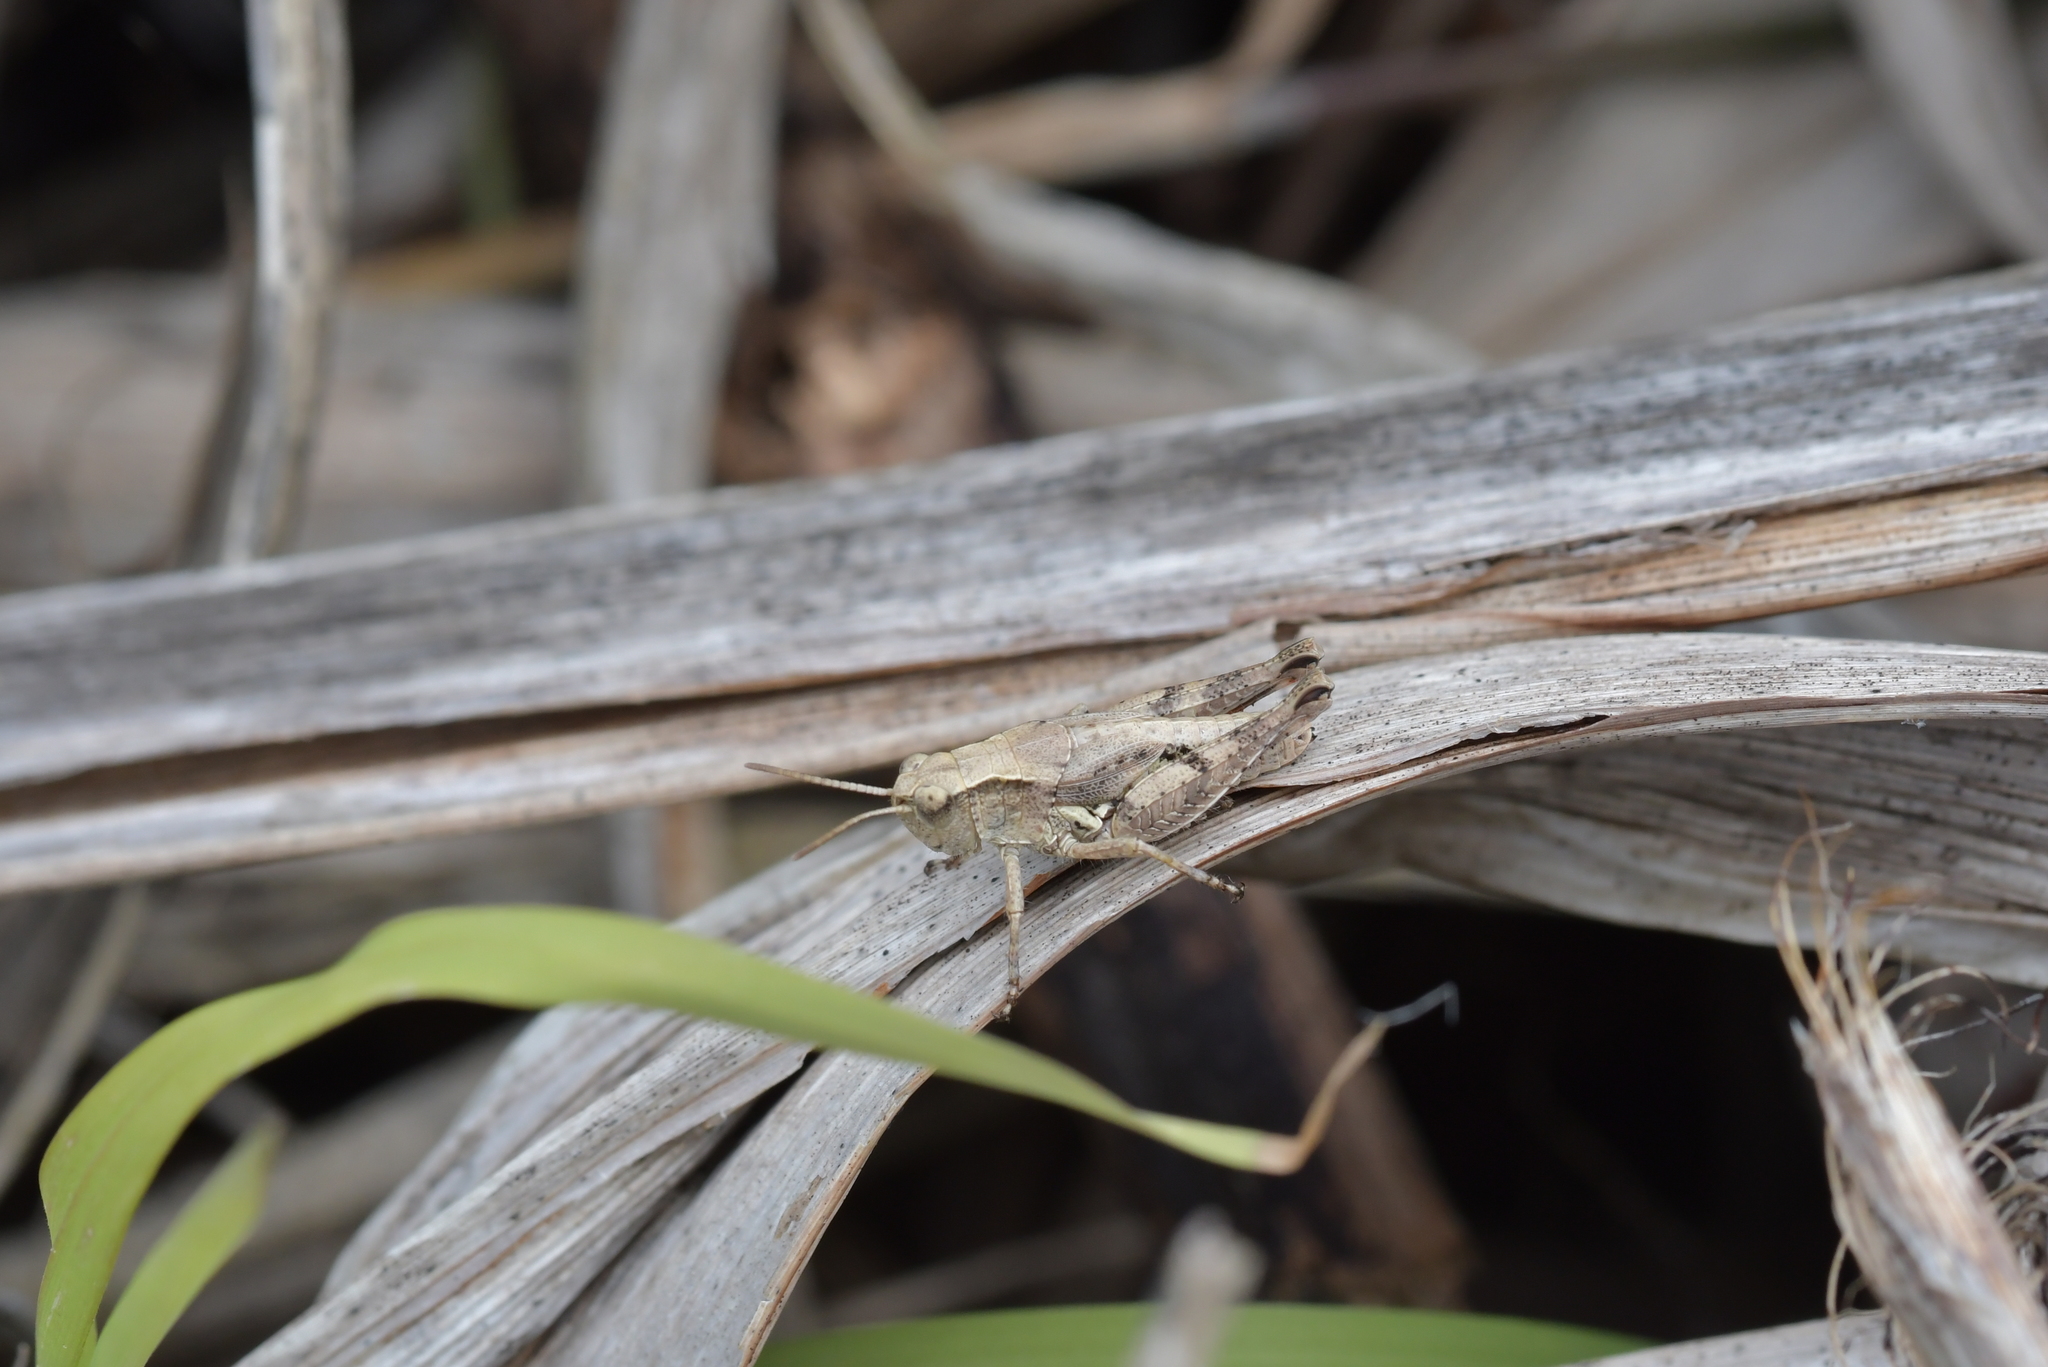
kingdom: Animalia
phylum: Arthropoda
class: Insecta
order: Orthoptera
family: Acrididae
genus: Phaulacridium
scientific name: Phaulacridium marginale
